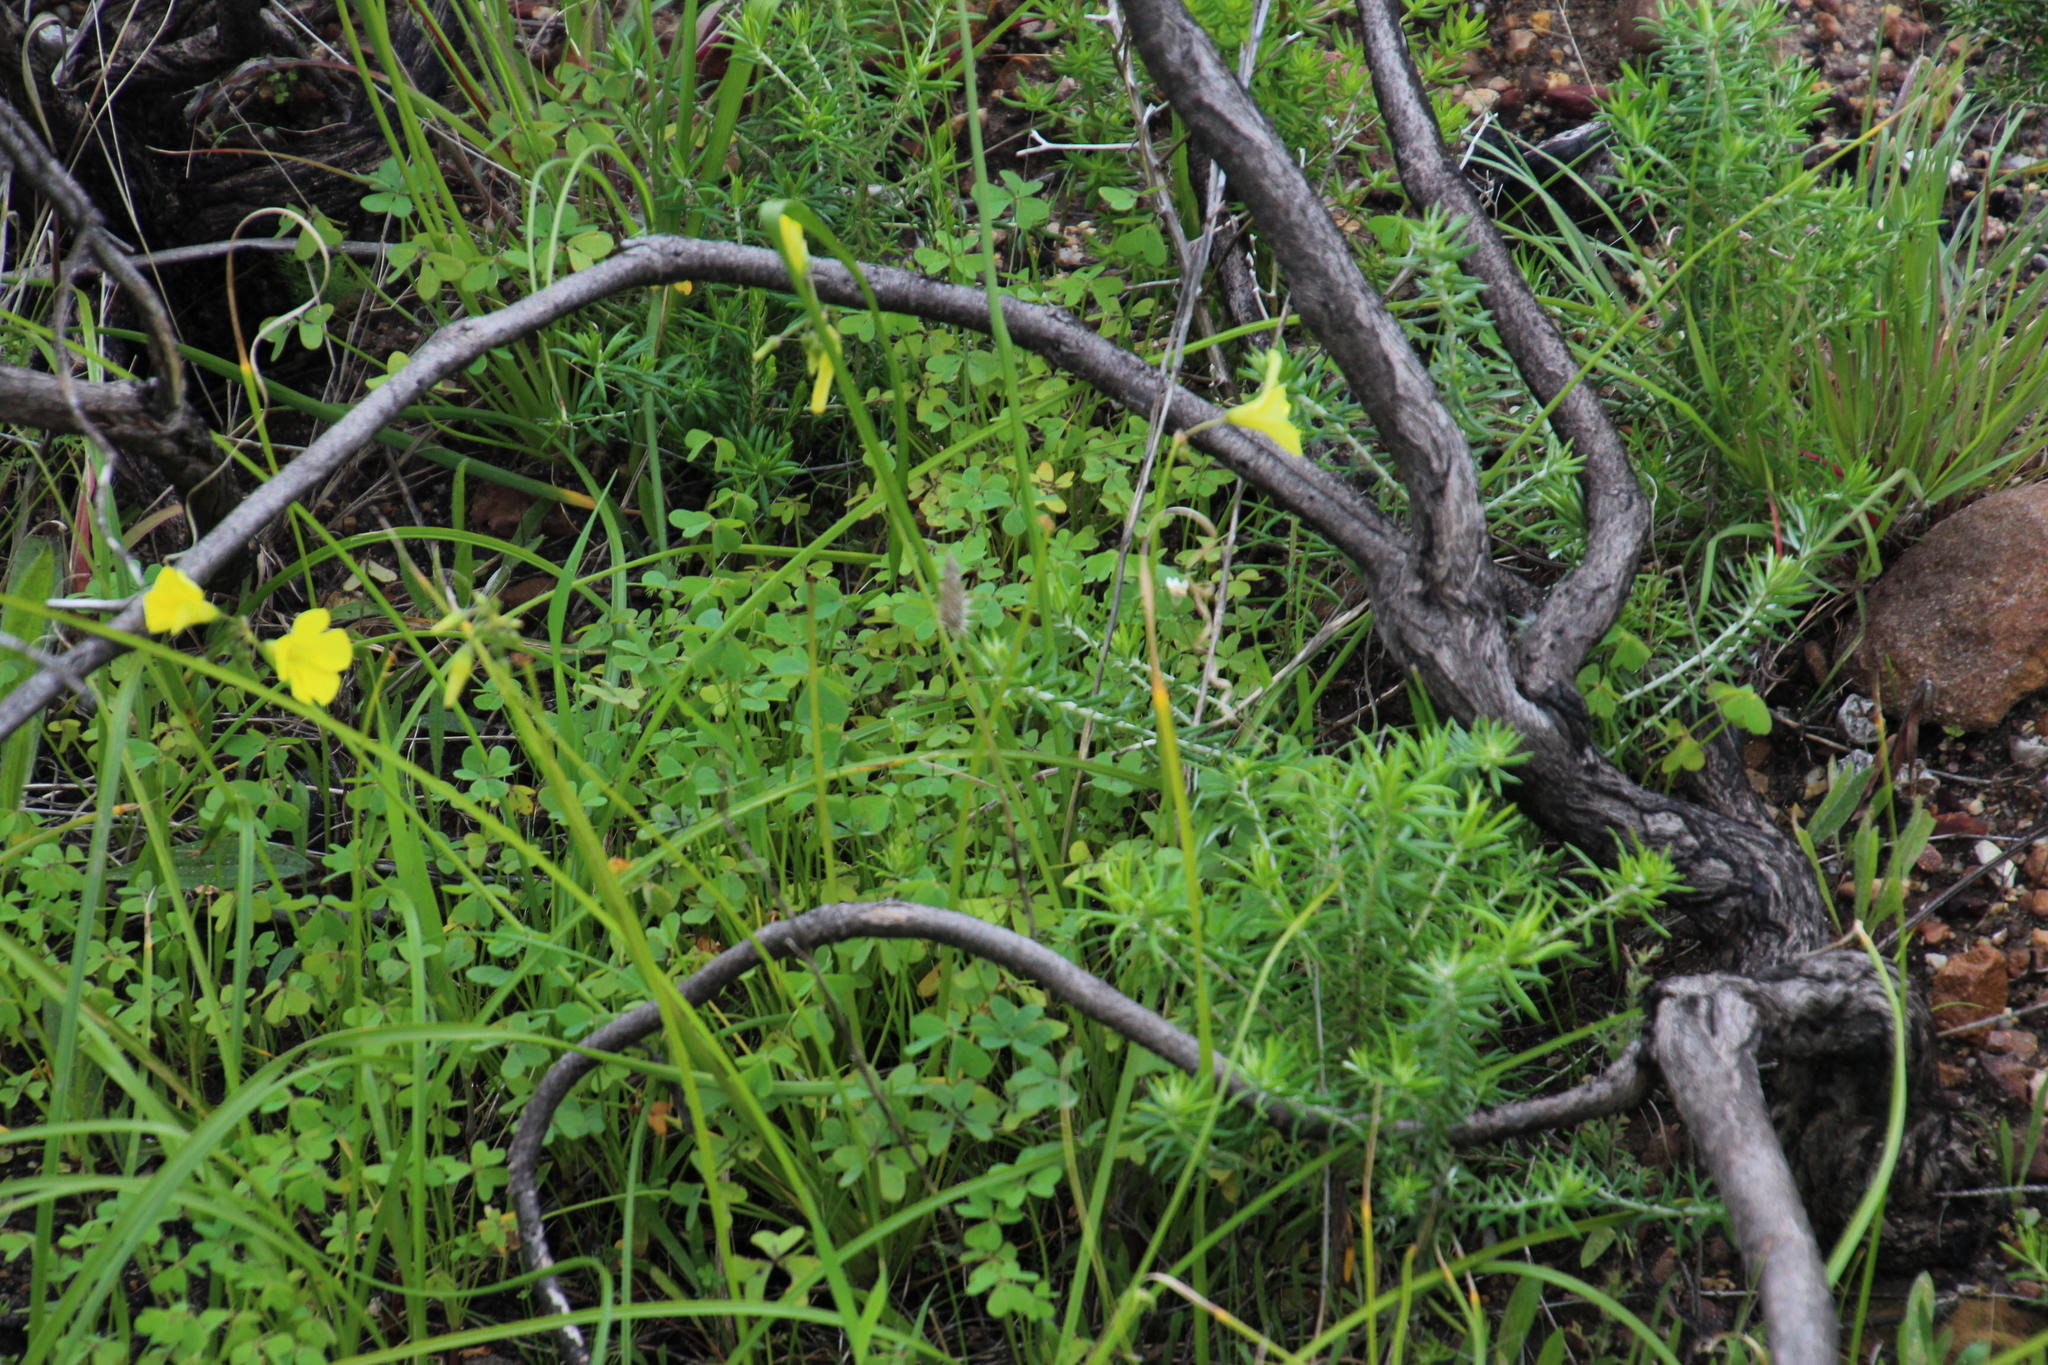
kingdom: Plantae
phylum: Tracheophyta
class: Magnoliopsida
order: Oxalidales
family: Oxalidaceae
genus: Oxalis
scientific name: Oxalis pes-caprae
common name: Bermuda-buttercup
